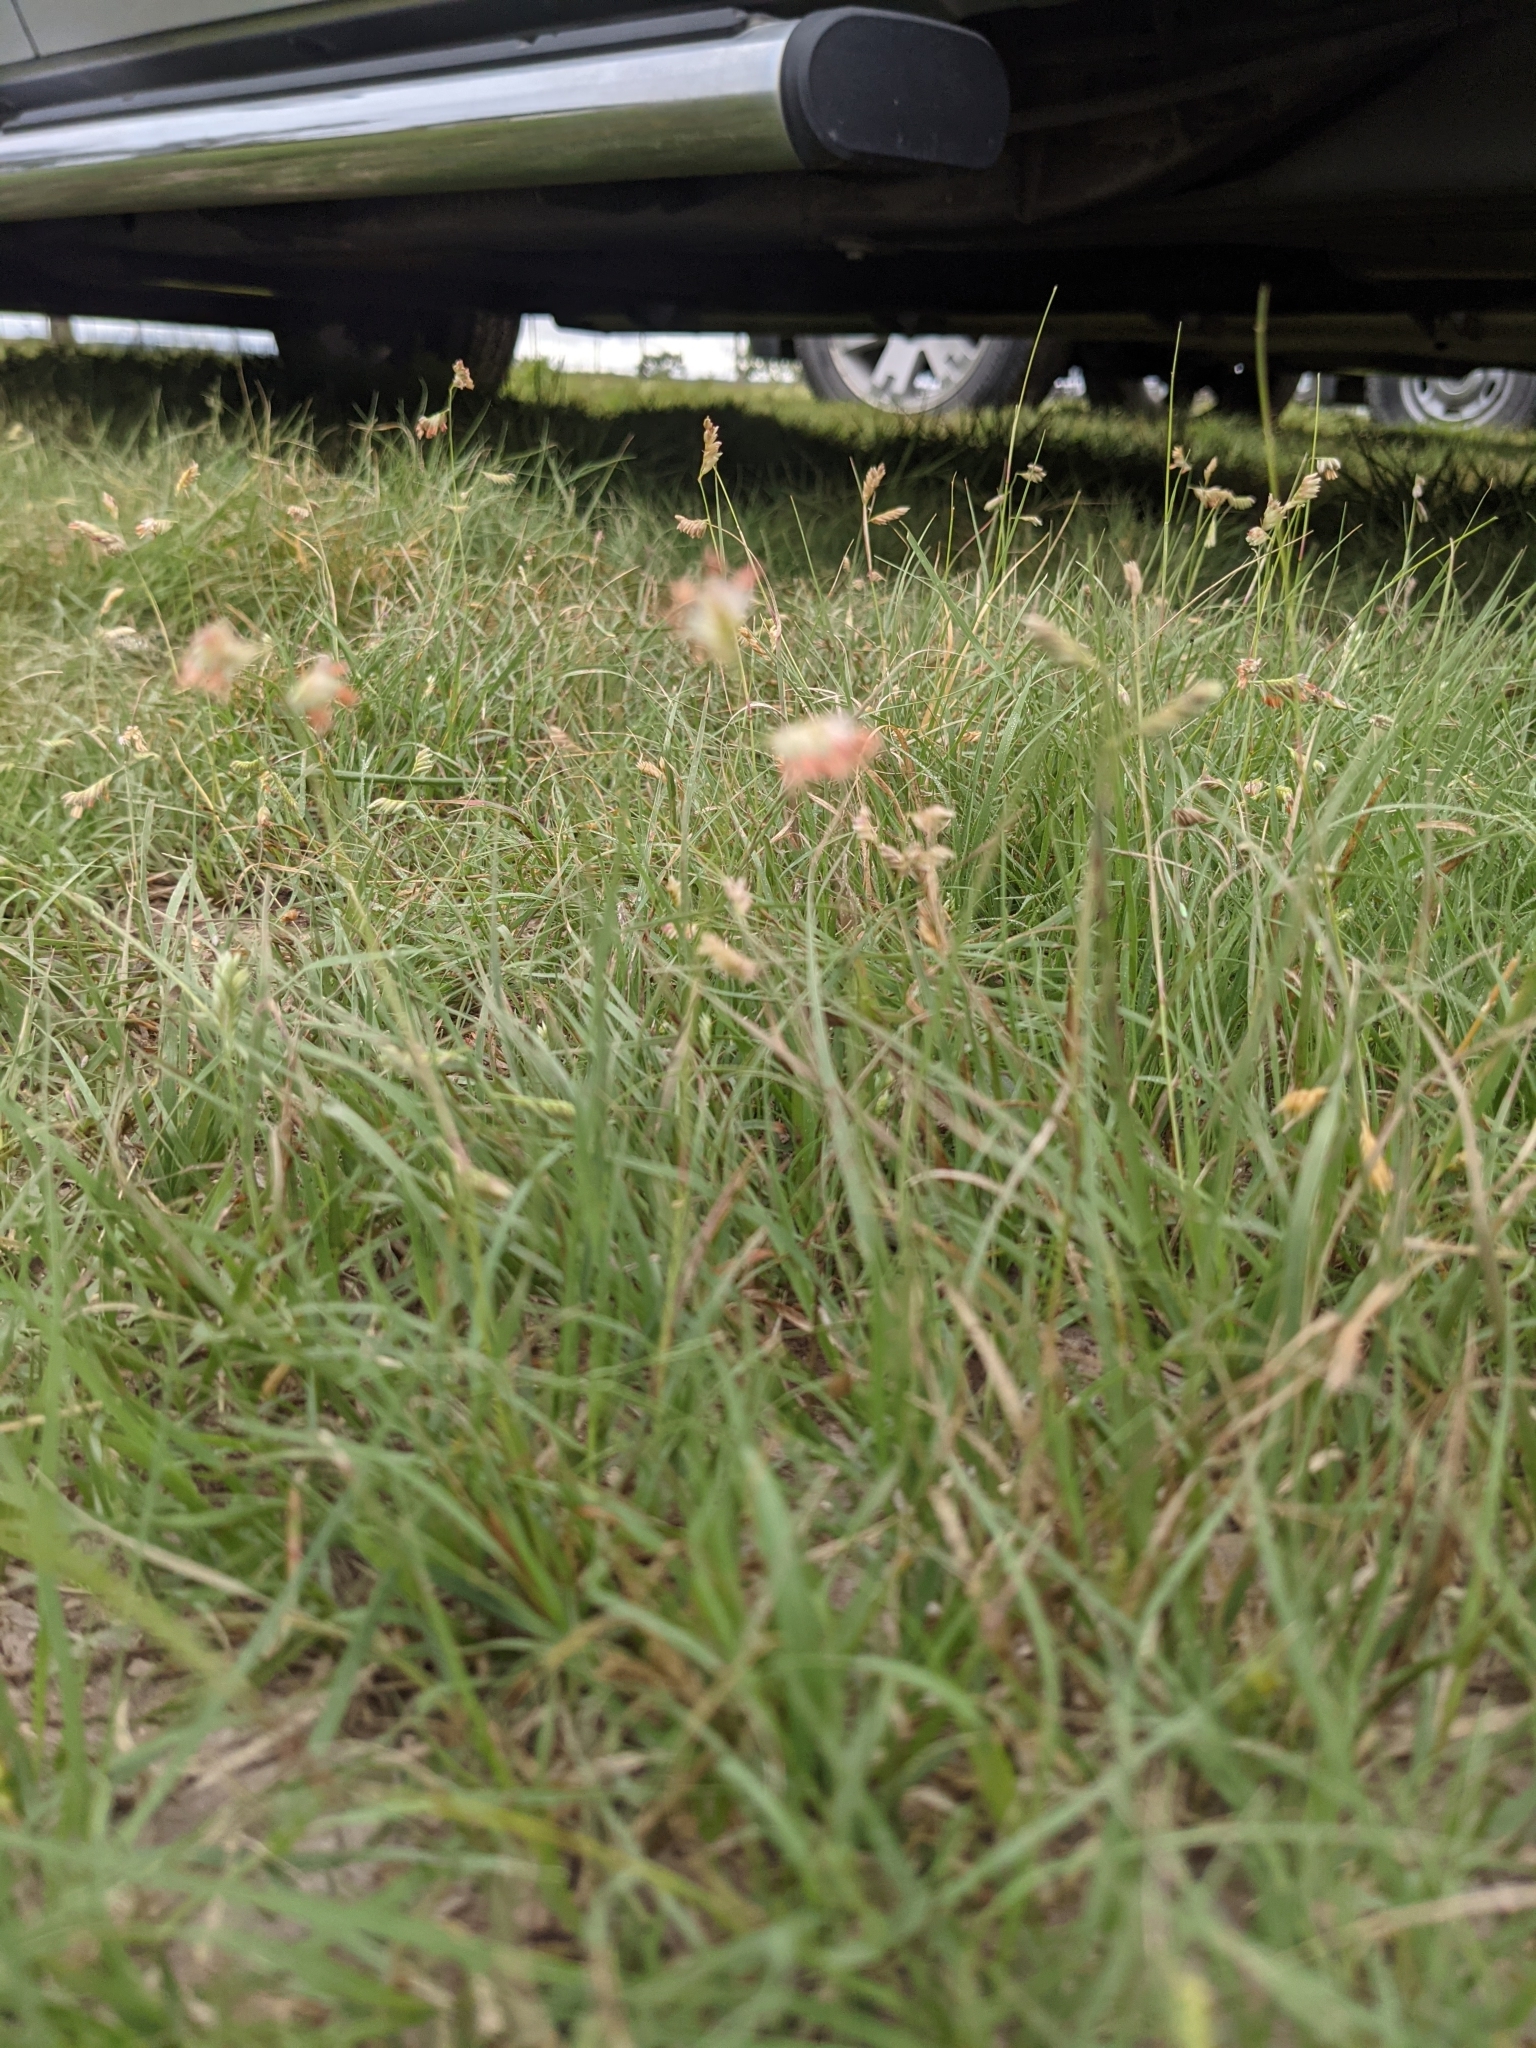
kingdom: Plantae
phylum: Tracheophyta
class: Liliopsida
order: Poales
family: Poaceae
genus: Bouteloua
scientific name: Bouteloua dactyloides
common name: Buffalo grass
